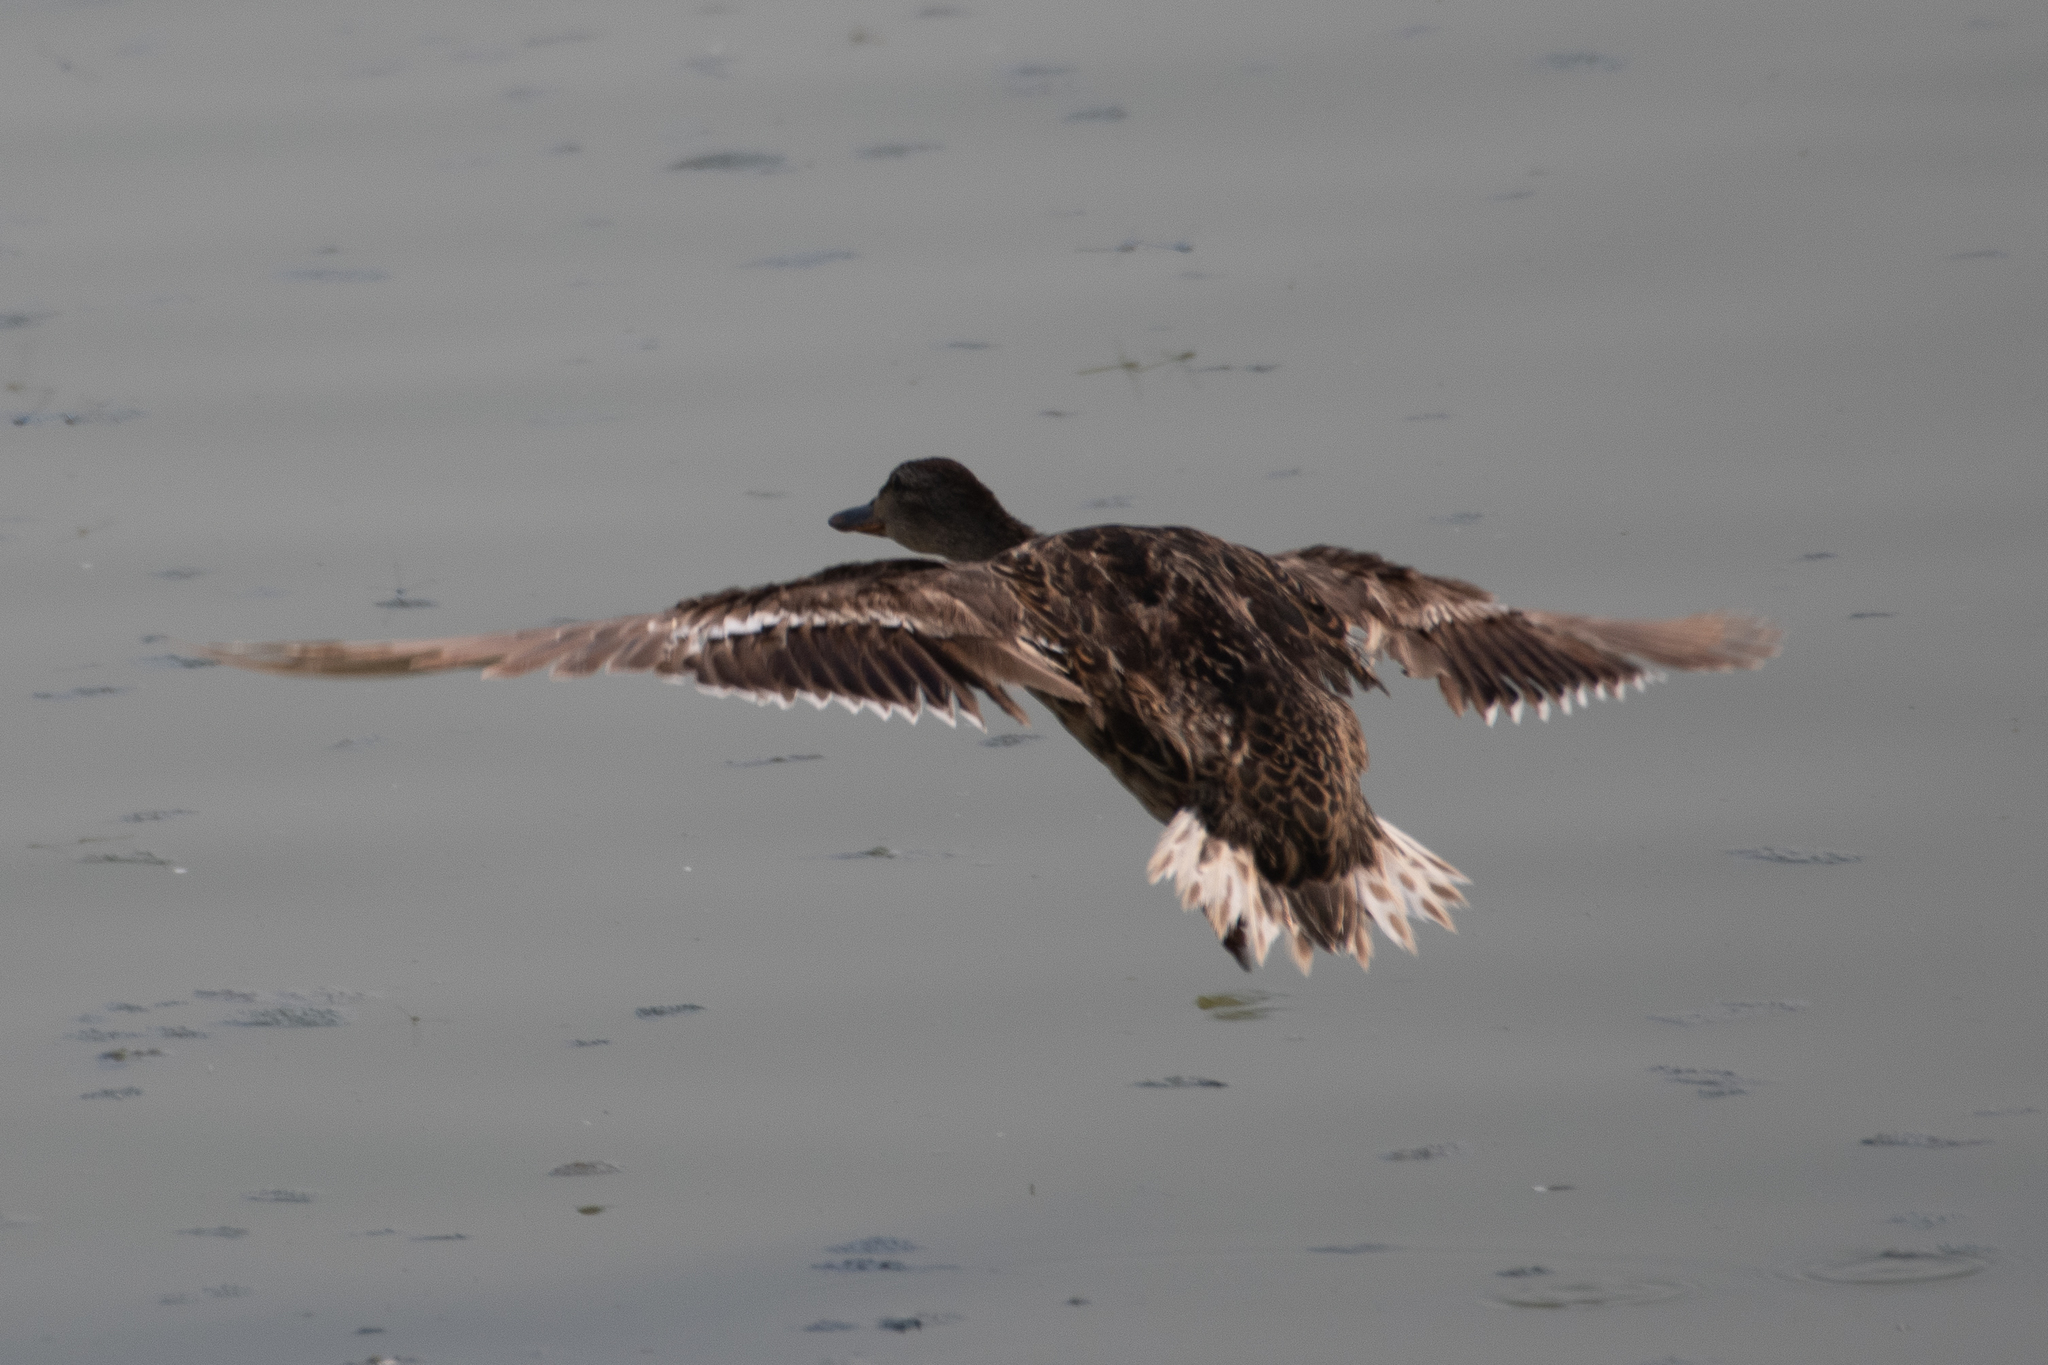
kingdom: Animalia
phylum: Chordata
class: Aves
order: Anseriformes
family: Anatidae
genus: Anas
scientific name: Anas platyrhynchos
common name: Mallard
